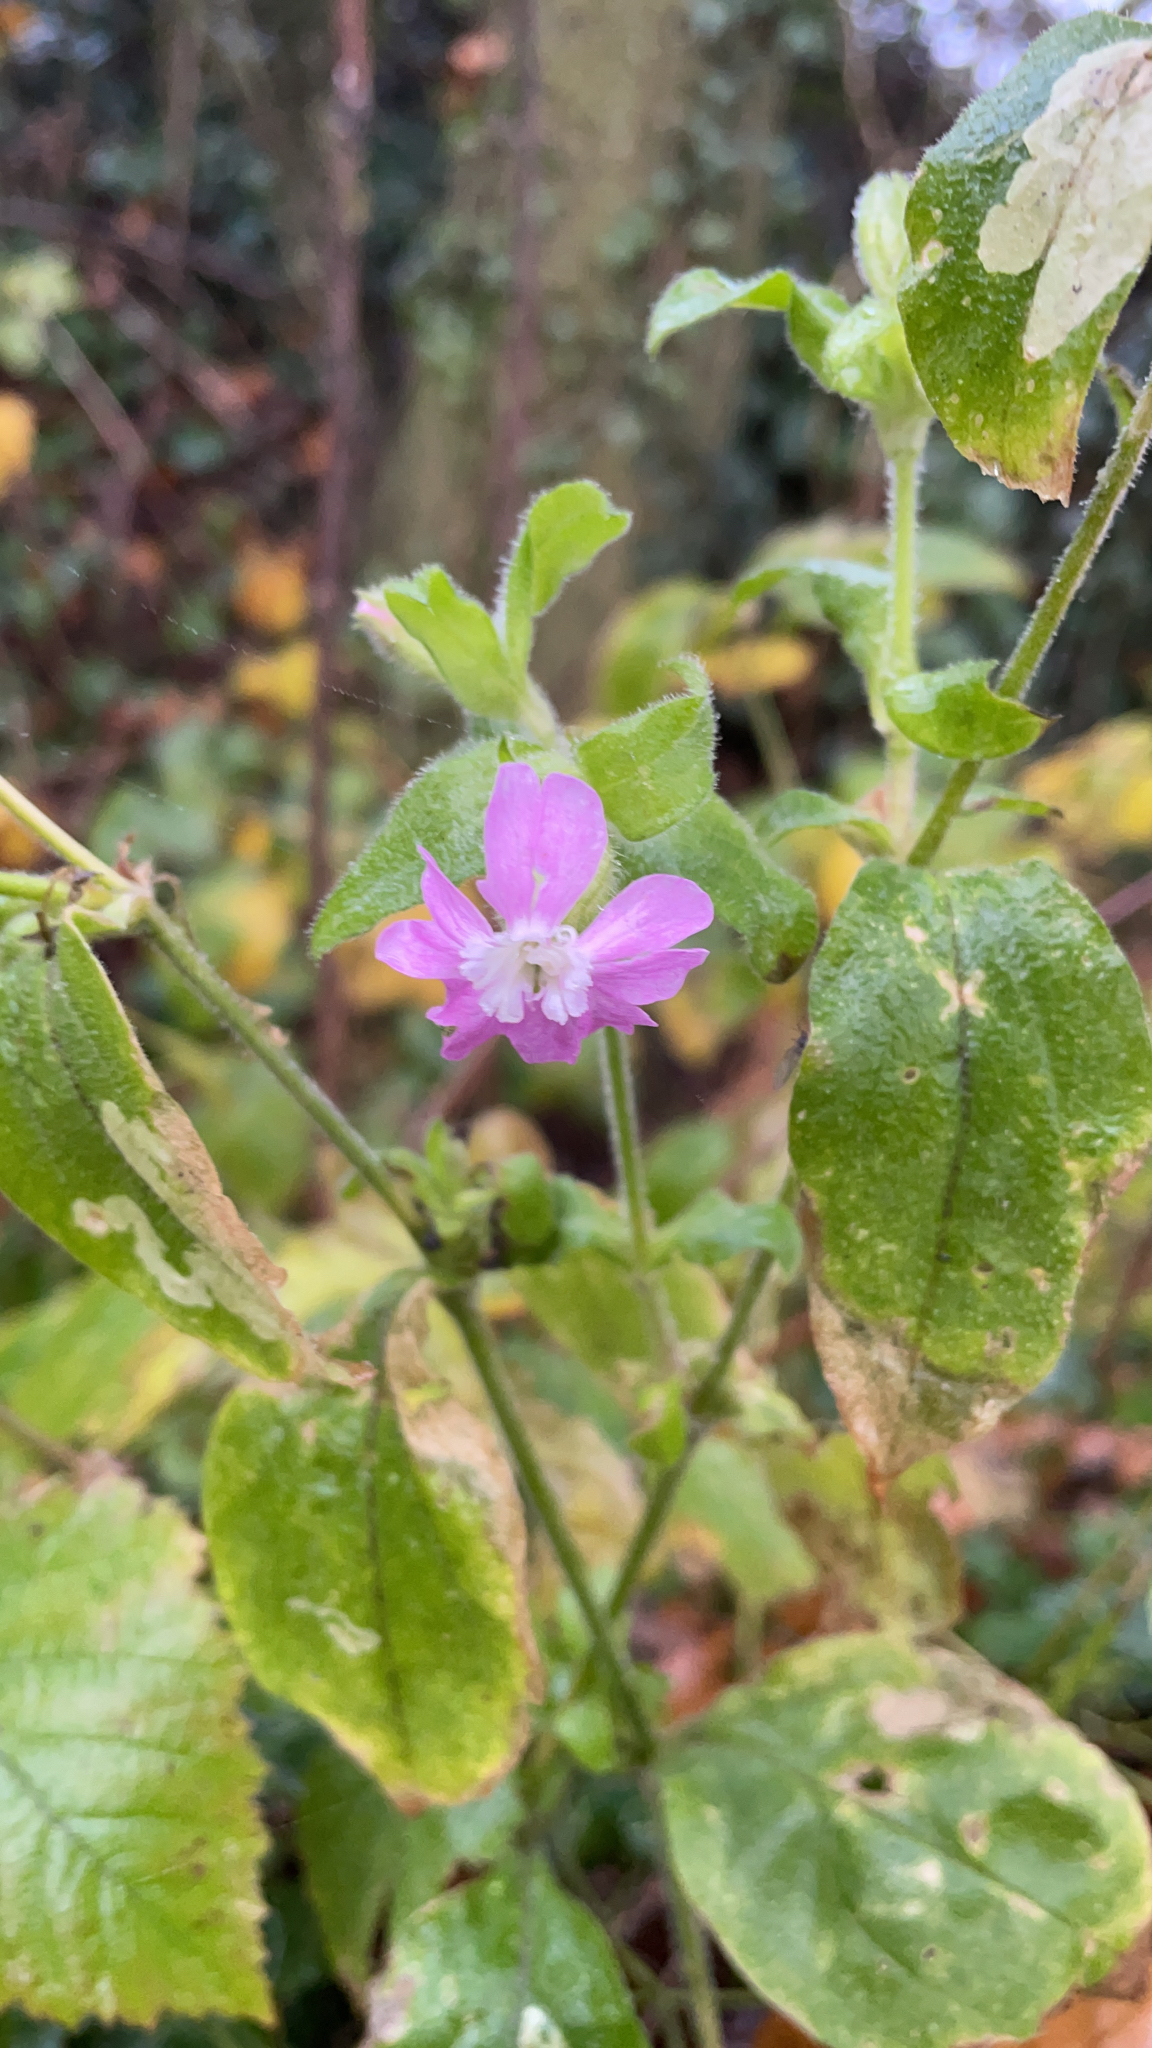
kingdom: Plantae
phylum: Tracheophyta
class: Magnoliopsida
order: Caryophyllales
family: Caryophyllaceae
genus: Silene
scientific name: Silene dioica
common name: Red campion
